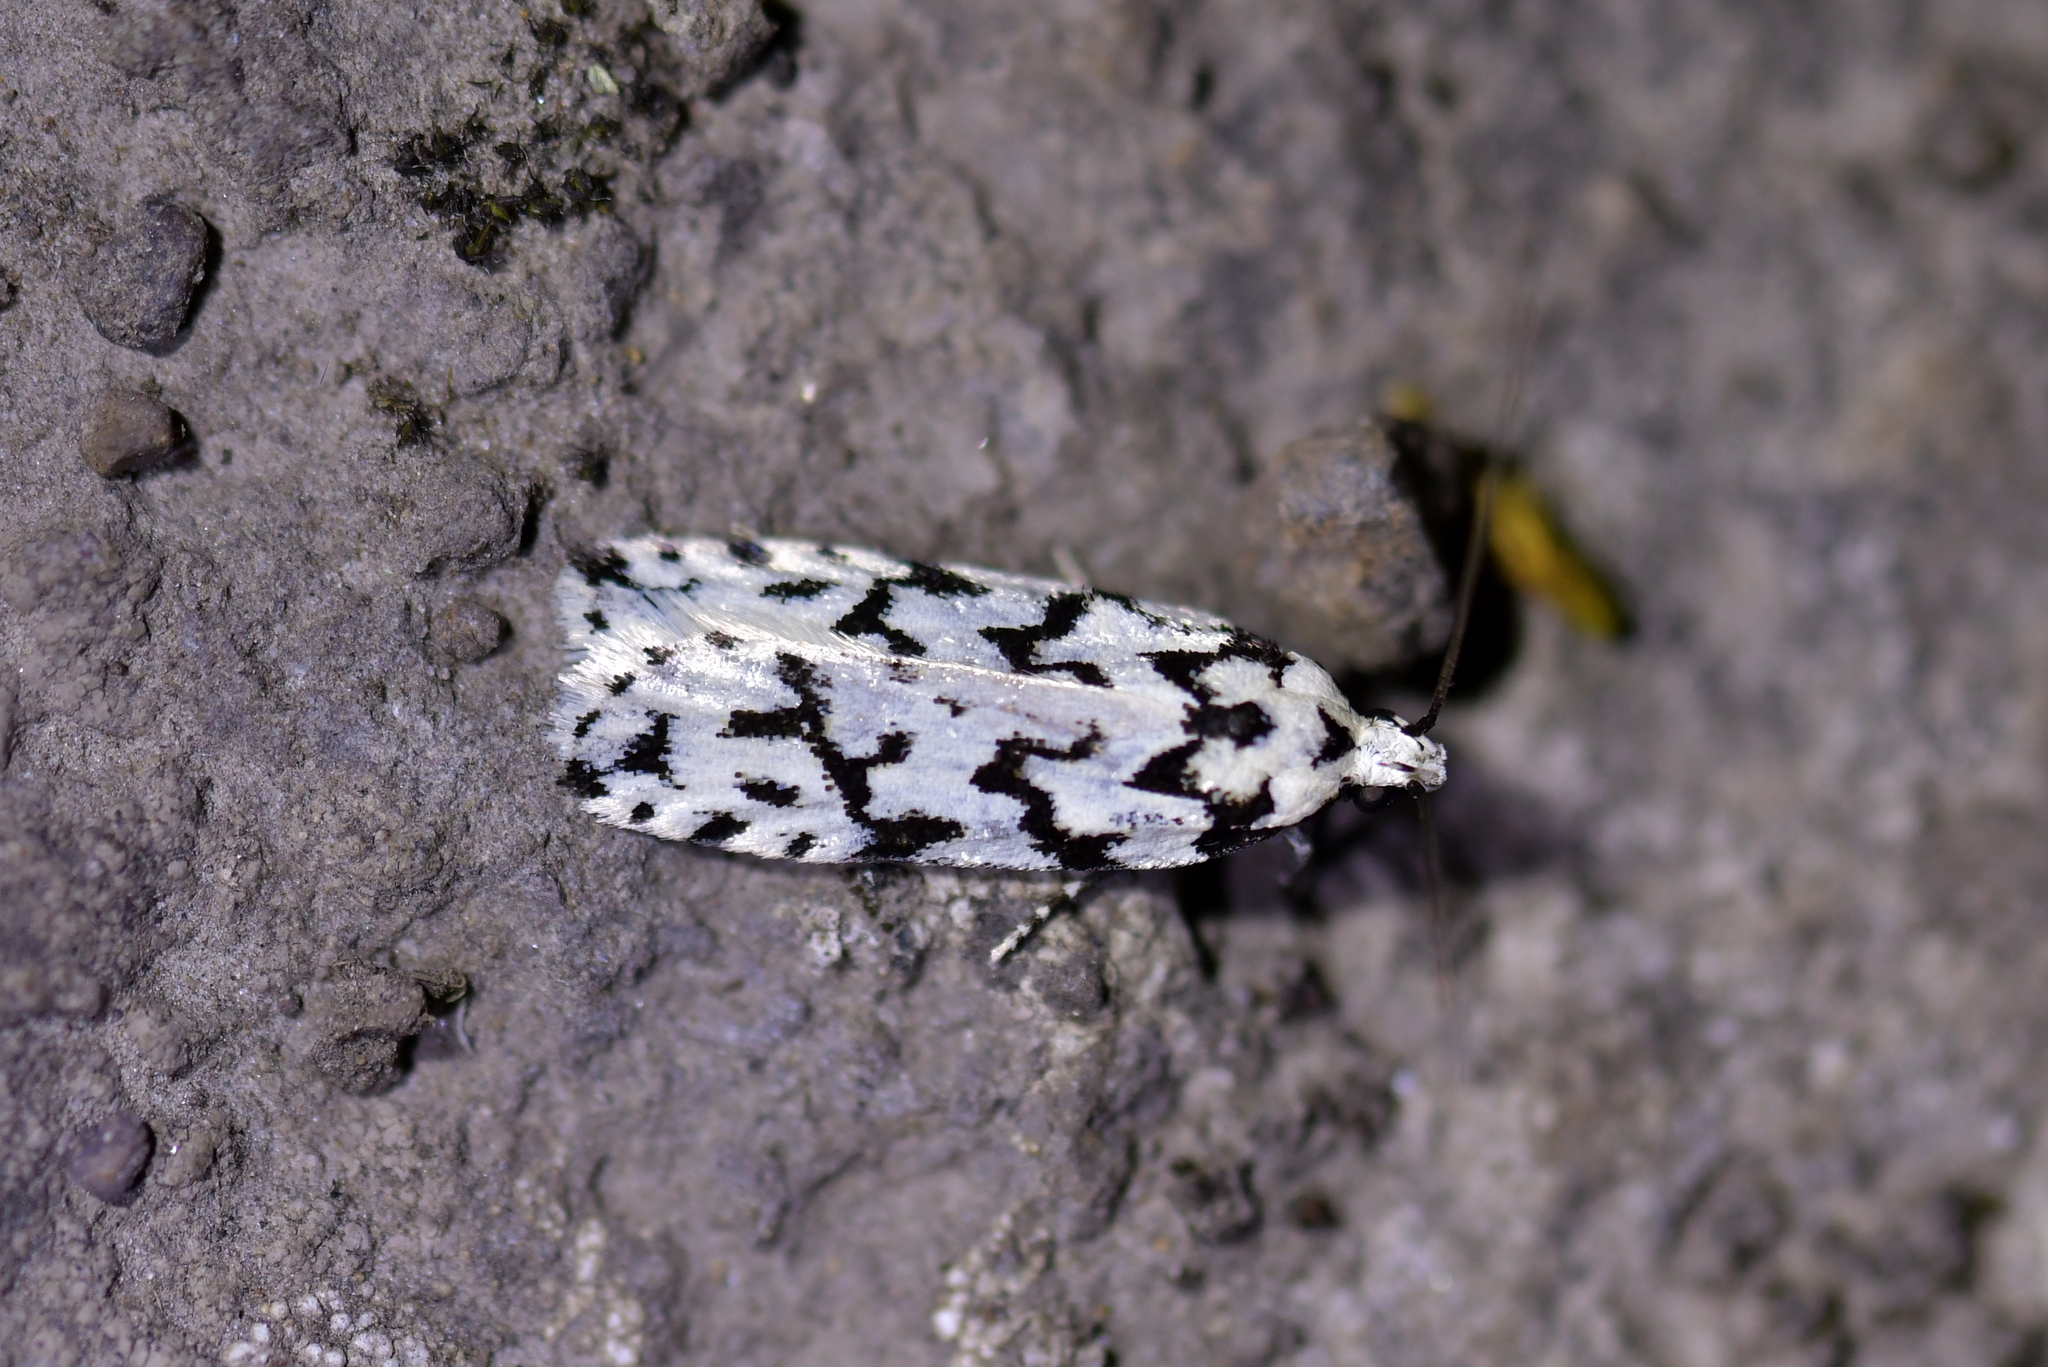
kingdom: Animalia
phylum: Arthropoda
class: Insecta
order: Lepidoptera
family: Oecophoridae
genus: Izatha
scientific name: Izatha katadiktya
